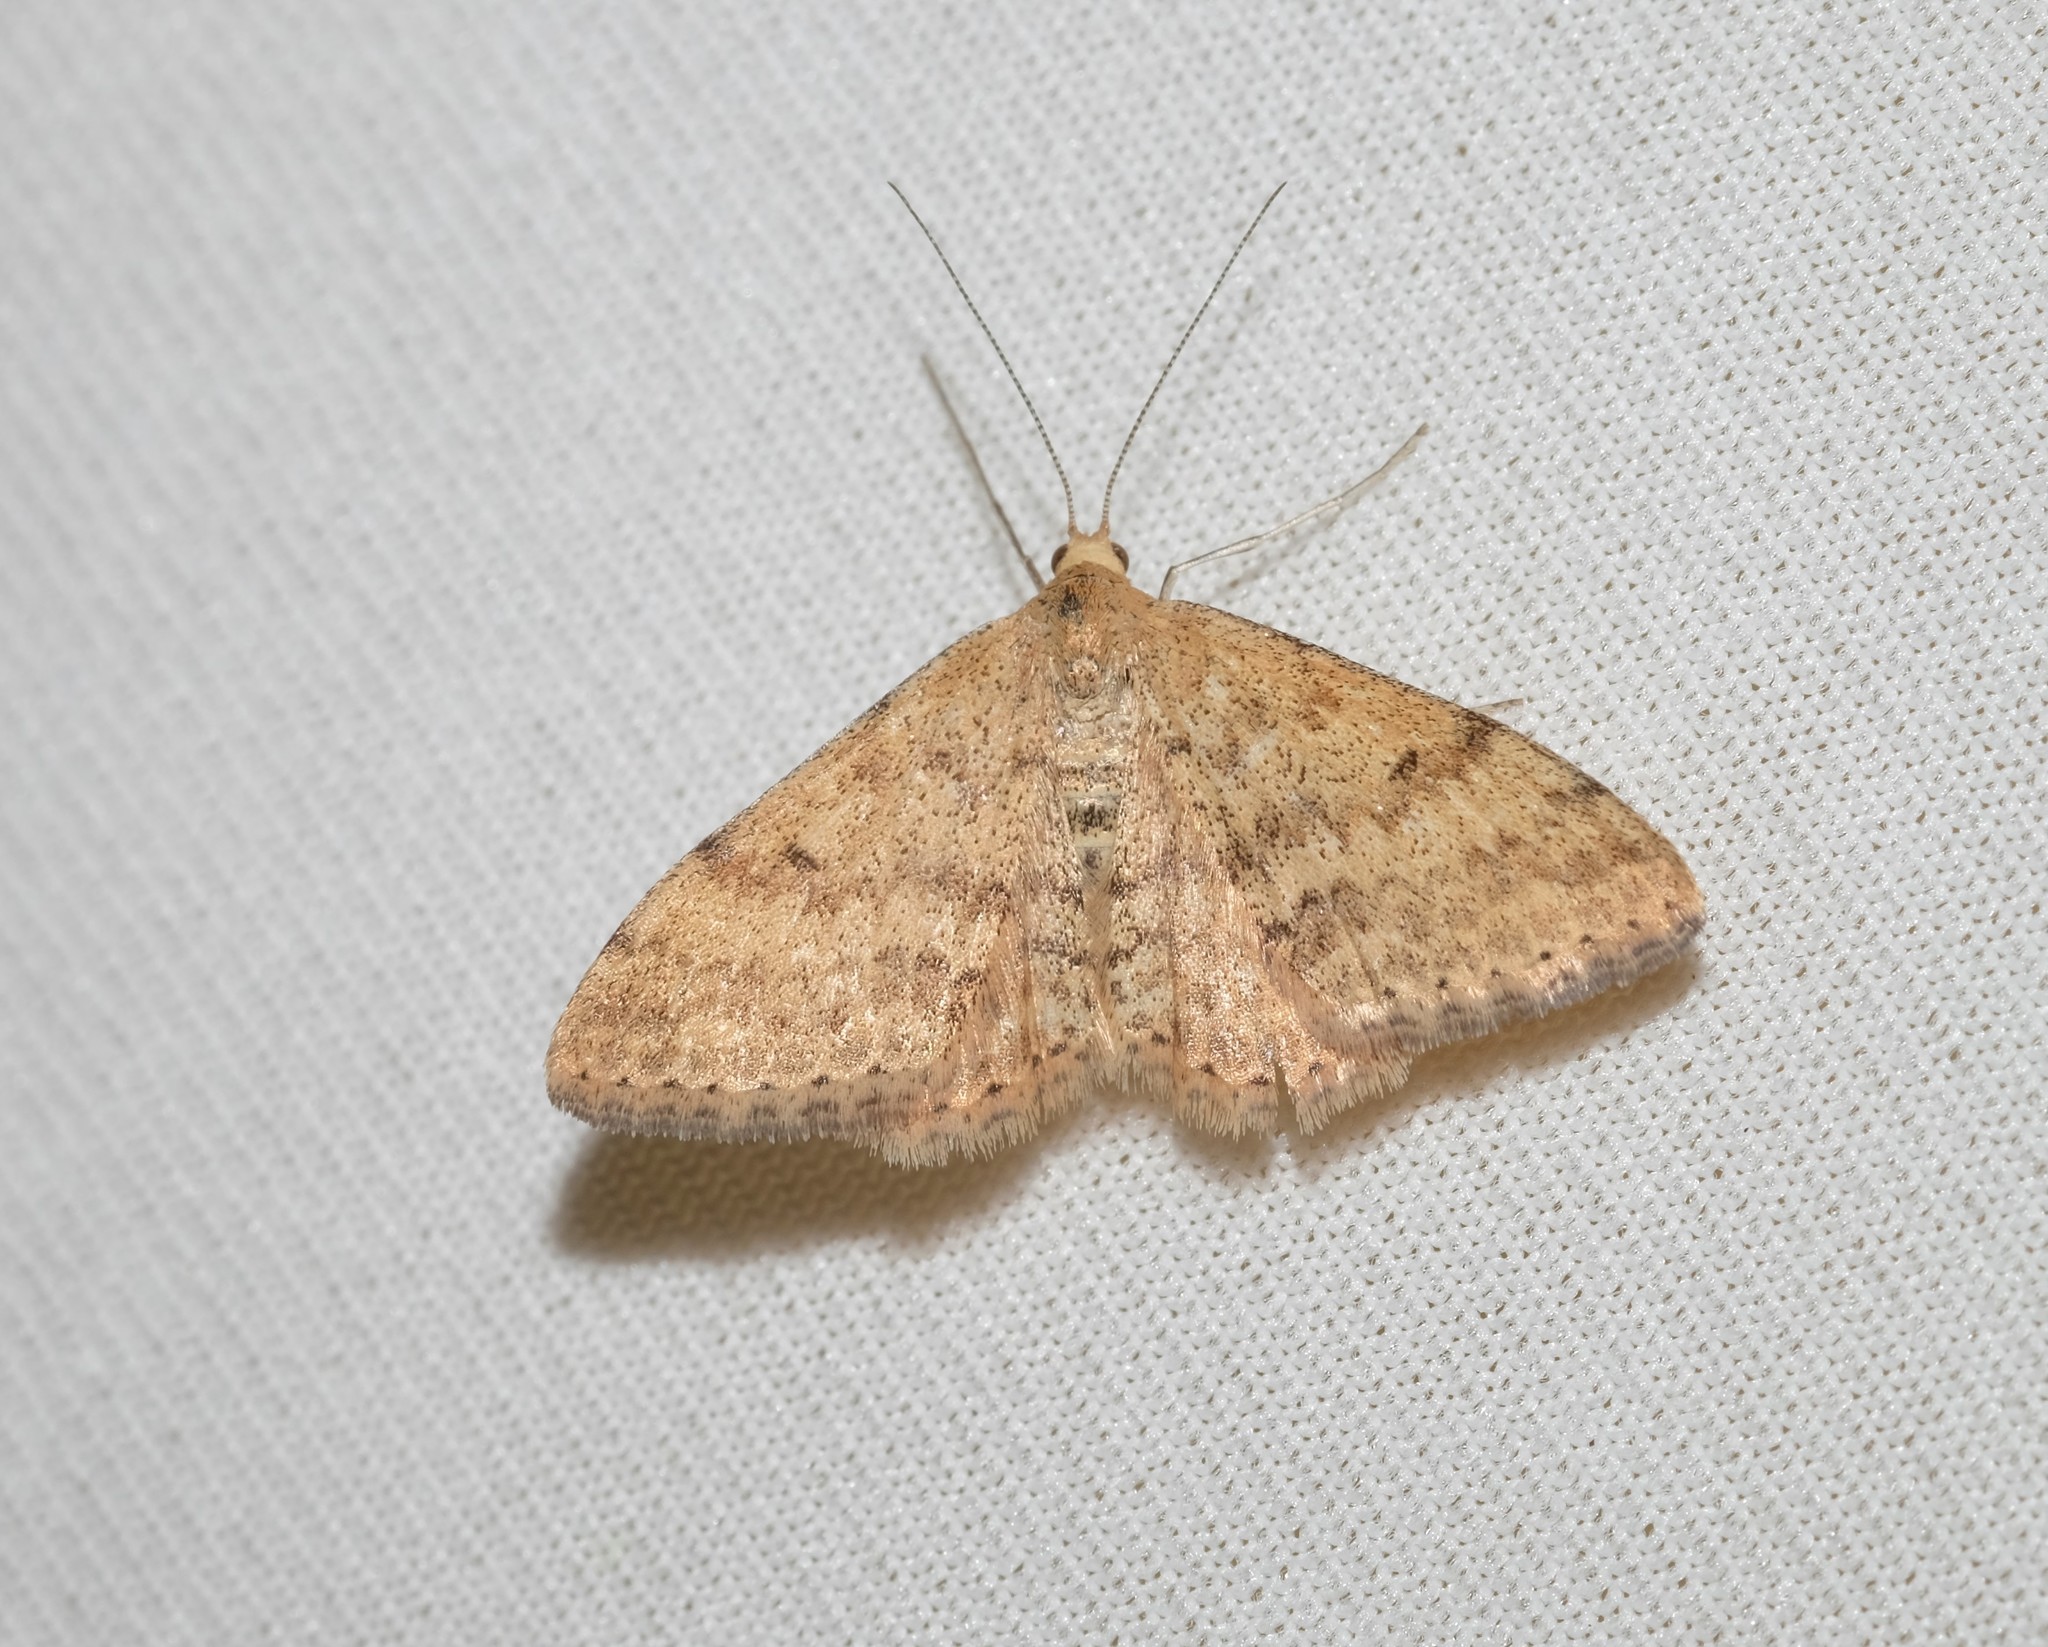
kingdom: Animalia
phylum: Arthropoda
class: Insecta
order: Lepidoptera
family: Geometridae
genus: Scopula
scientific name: Scopula rubraria
